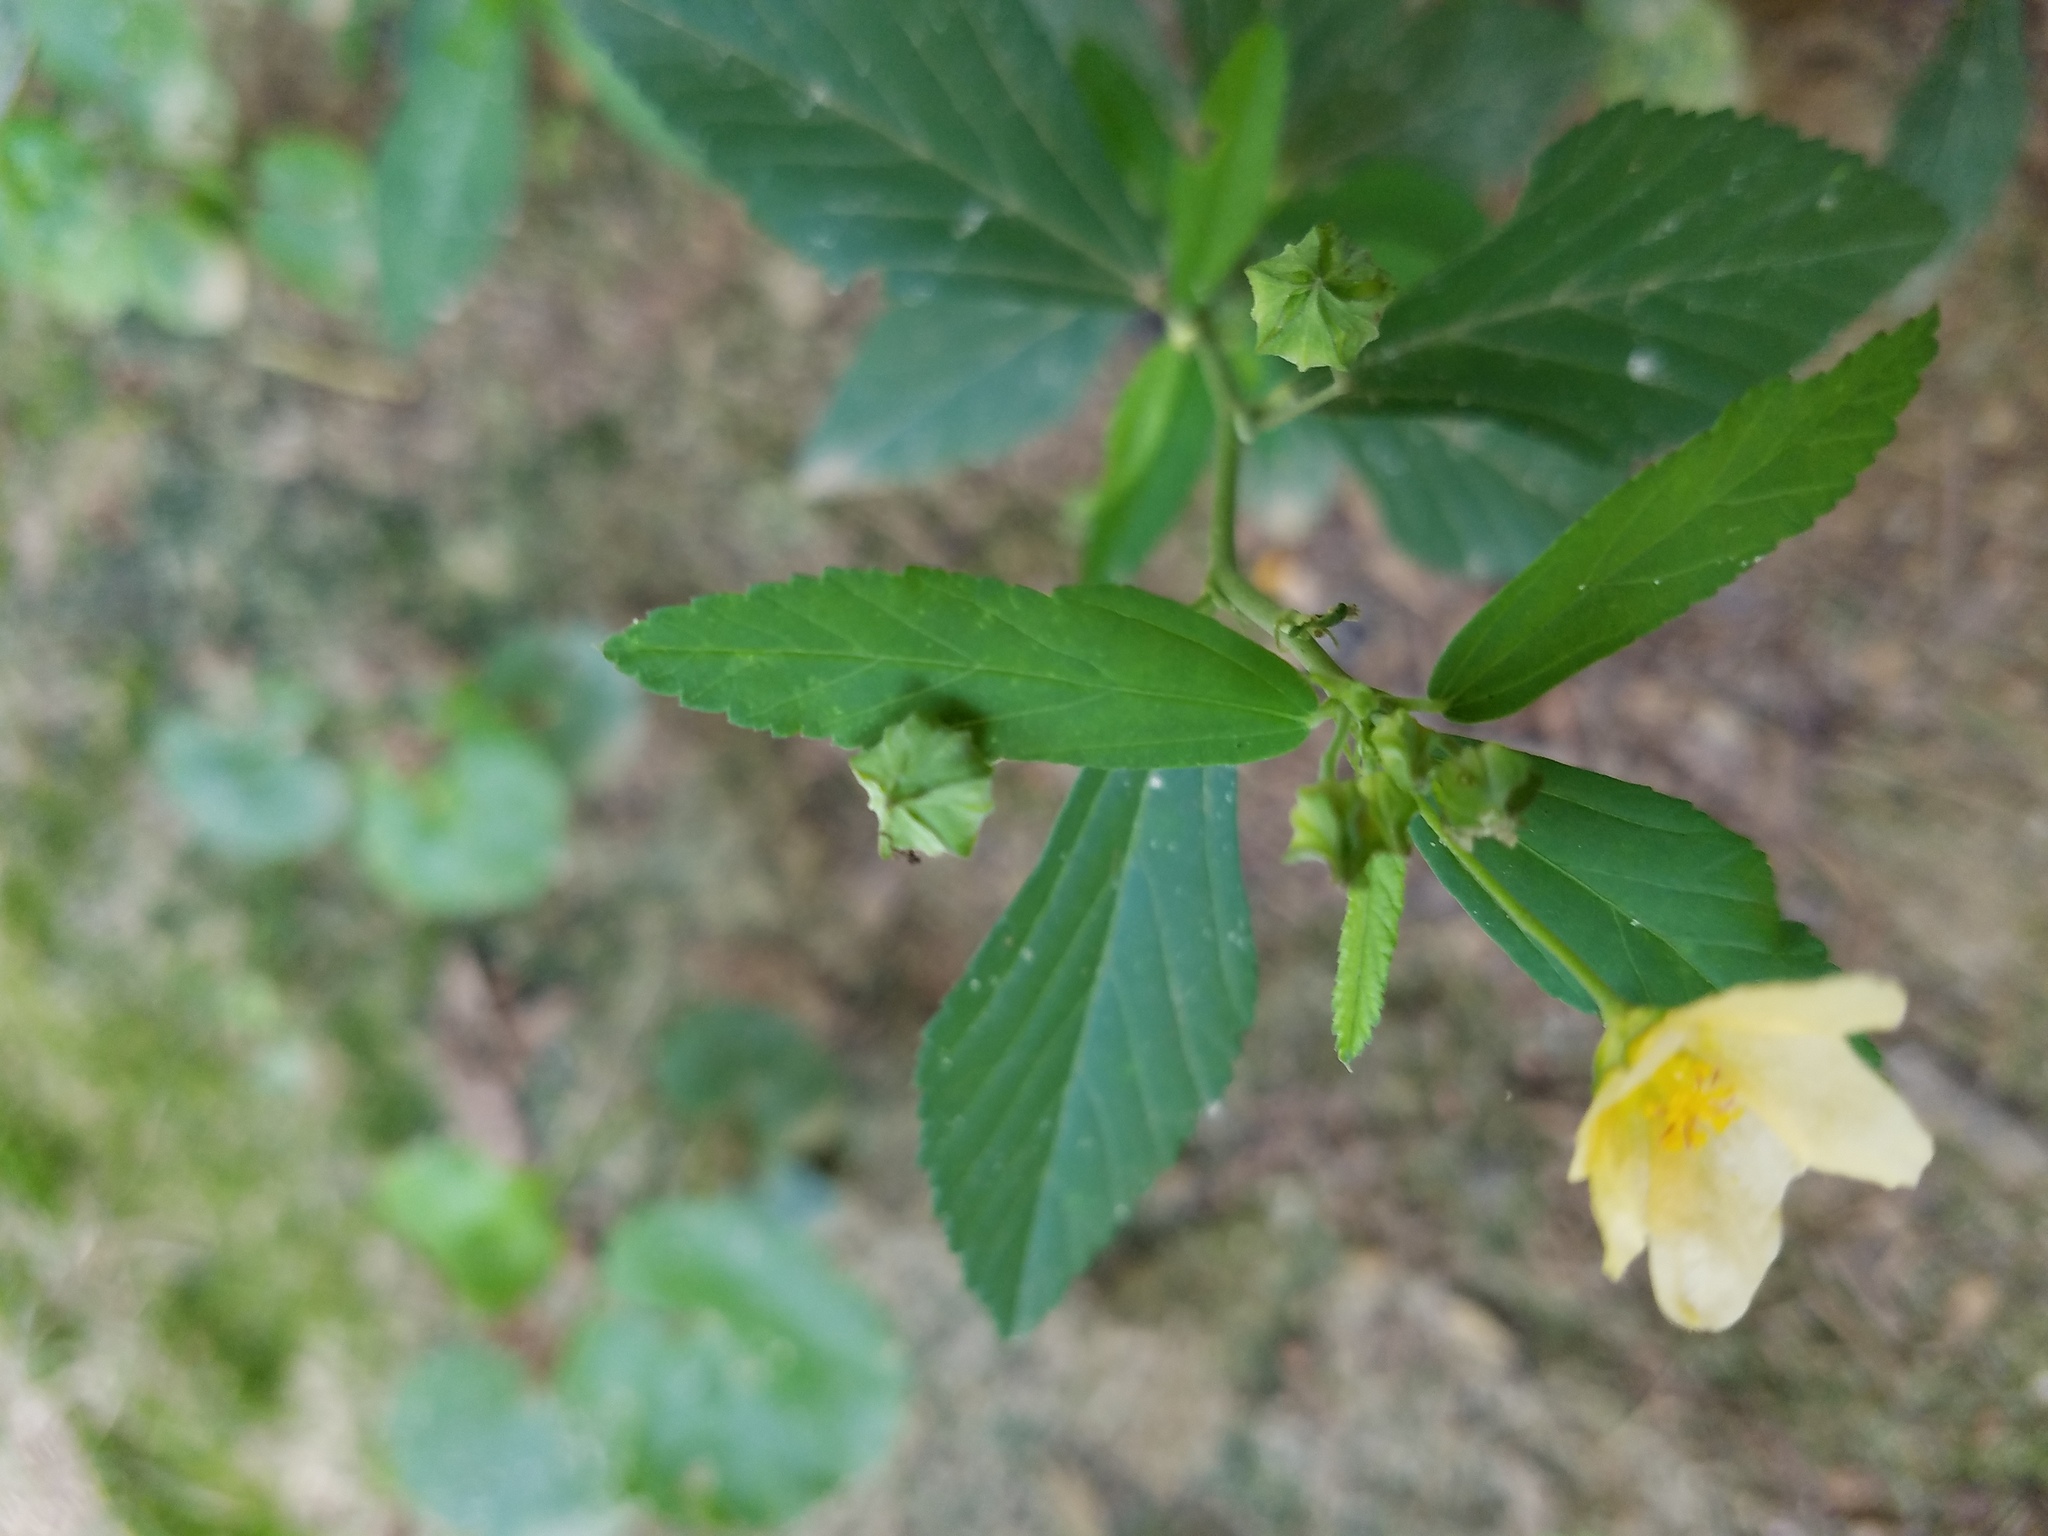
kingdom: Plantae
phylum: Tracheophyta
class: Magnoliopsida
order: Malvales
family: Malvaceae
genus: Sida
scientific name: Sida rhombifolia
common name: Queensland-hemp
